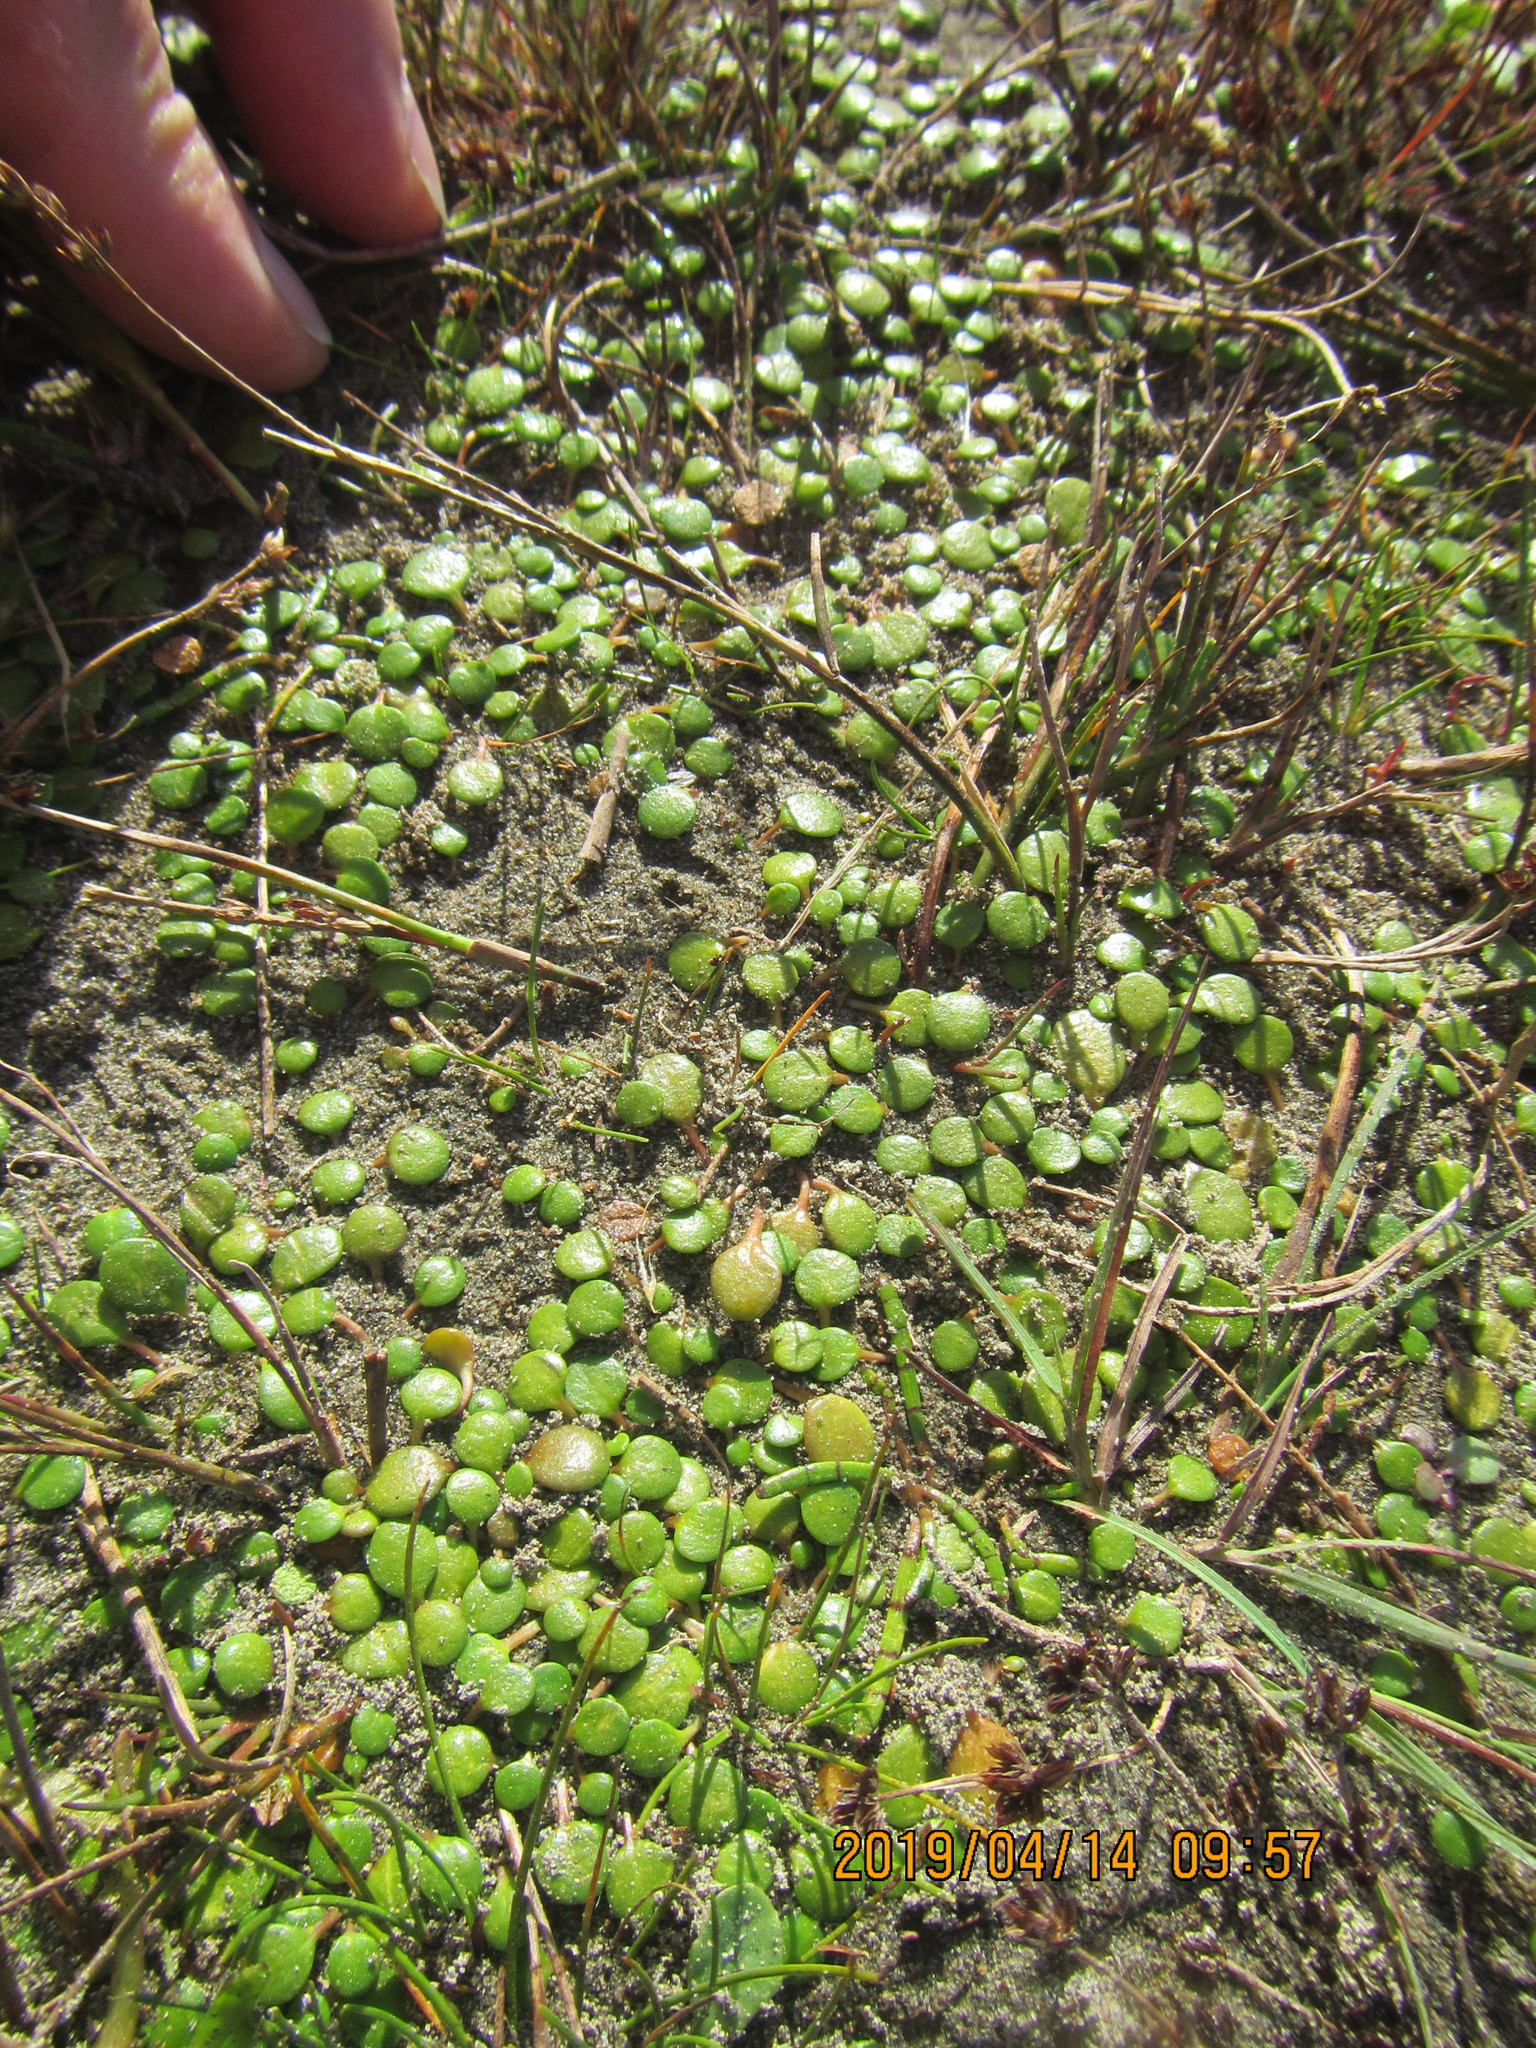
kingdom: Plantae
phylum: Tracheophyta
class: Magnoliopsida
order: Asterales
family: Goodeniaceae
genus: Goodenia
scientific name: Goodenia heenanii
